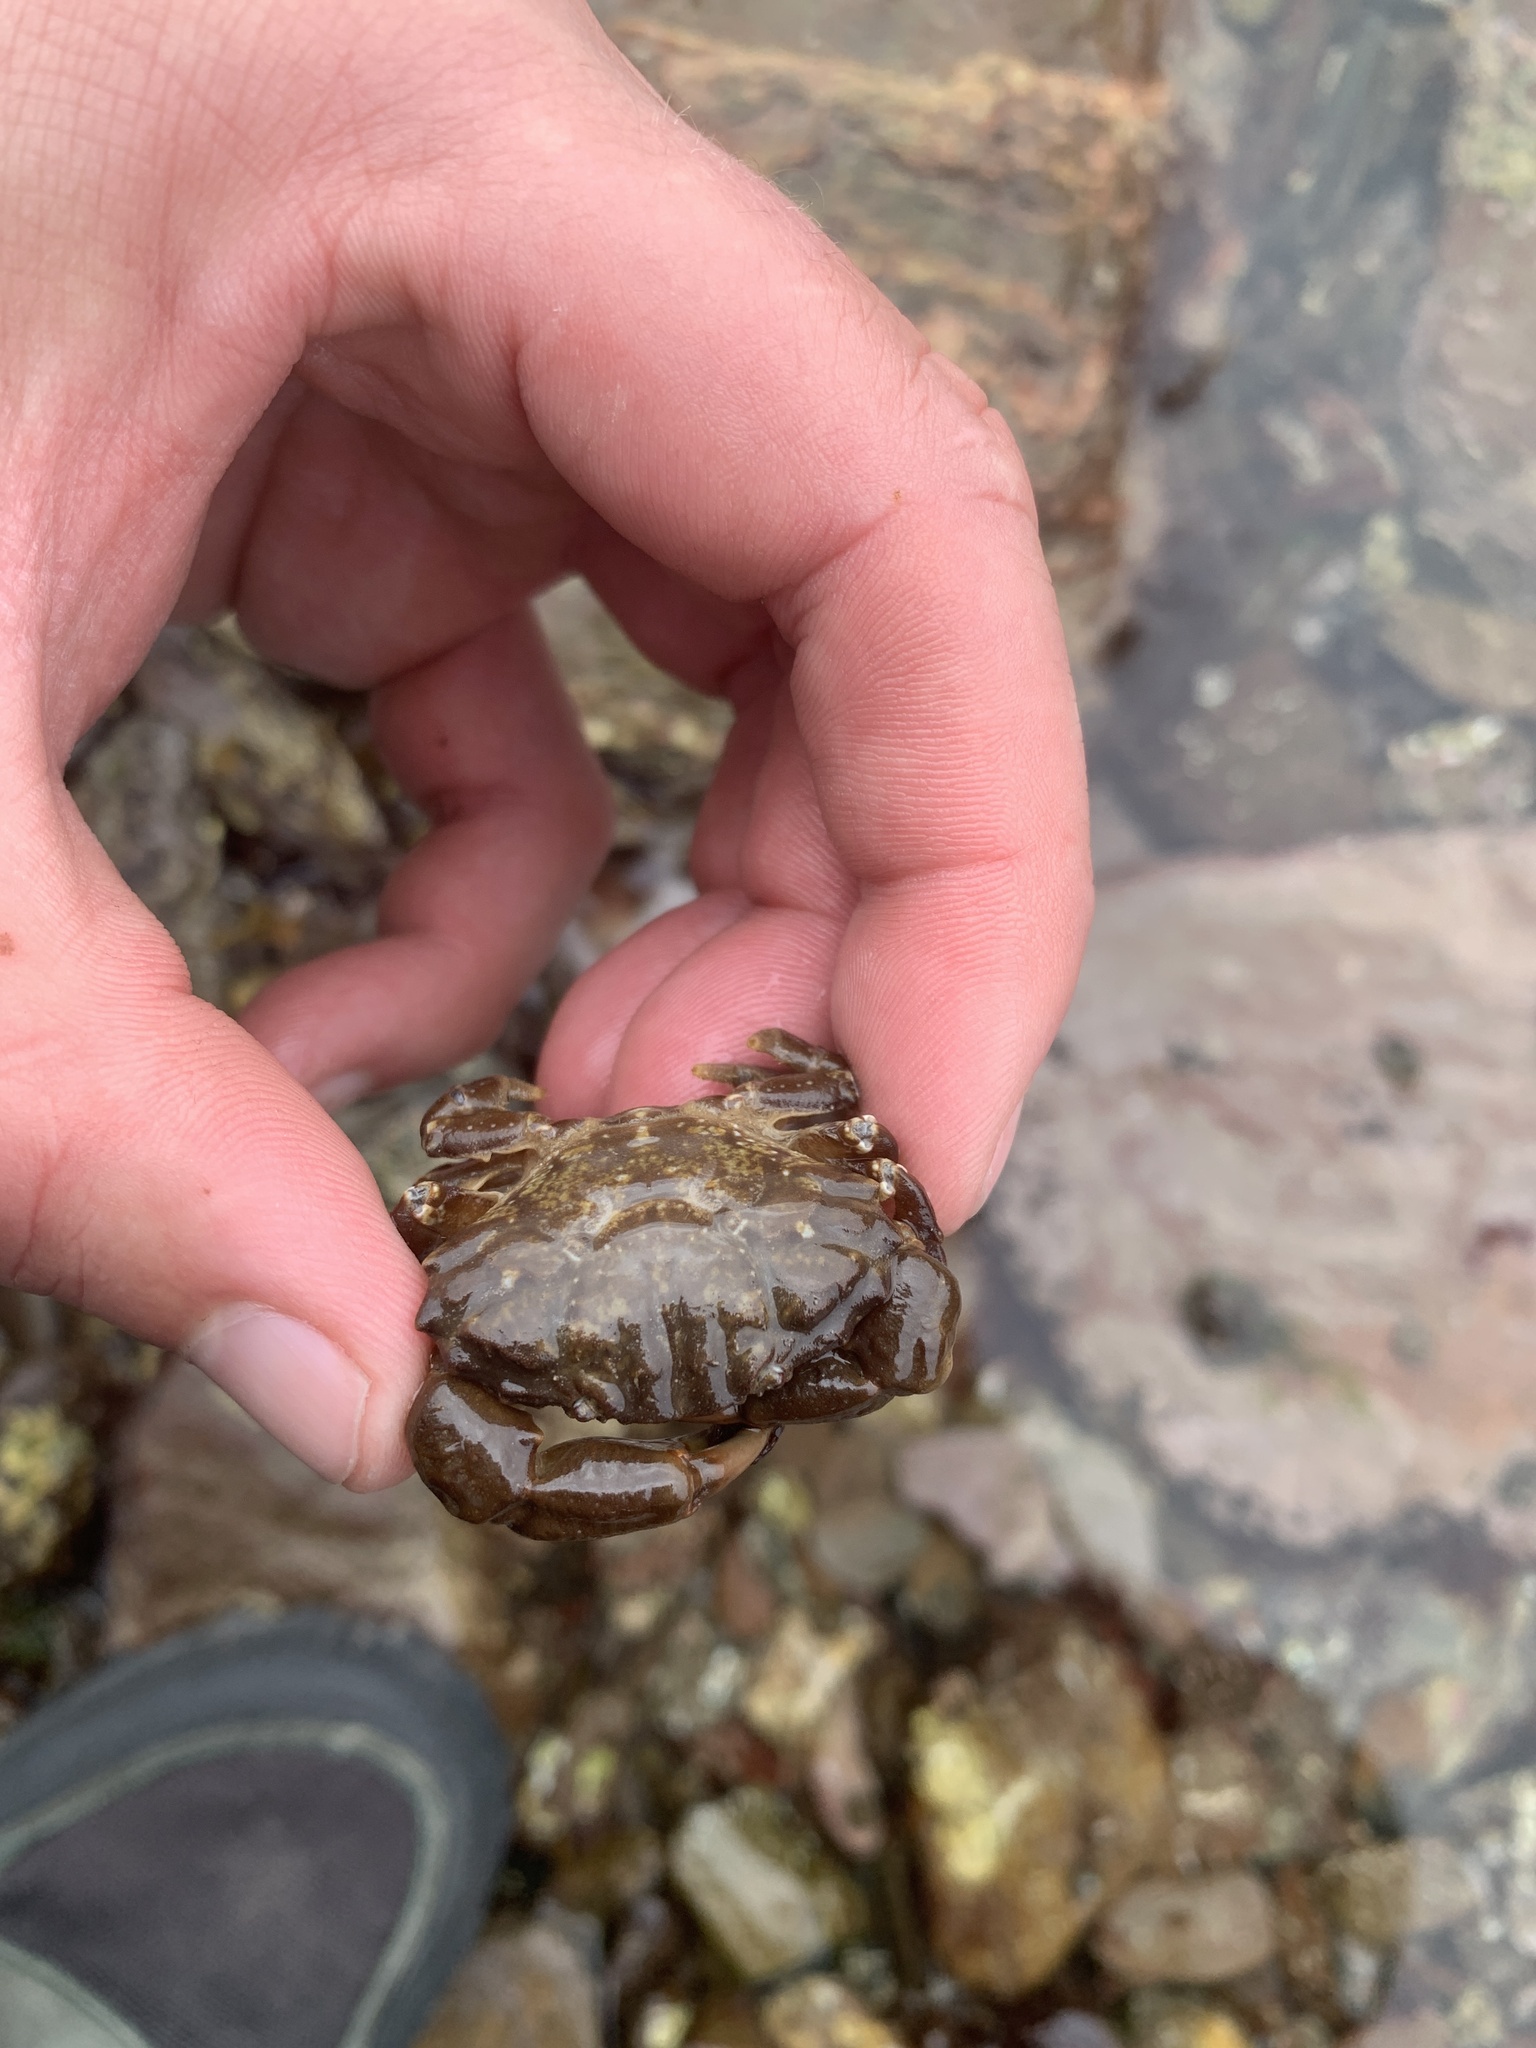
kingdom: Animalia
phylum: Arthropoda
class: Malacostraca
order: Decapoda
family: Xanthidae
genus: Xantho
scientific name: Xantho hydrophilus
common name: Montagu's crab
